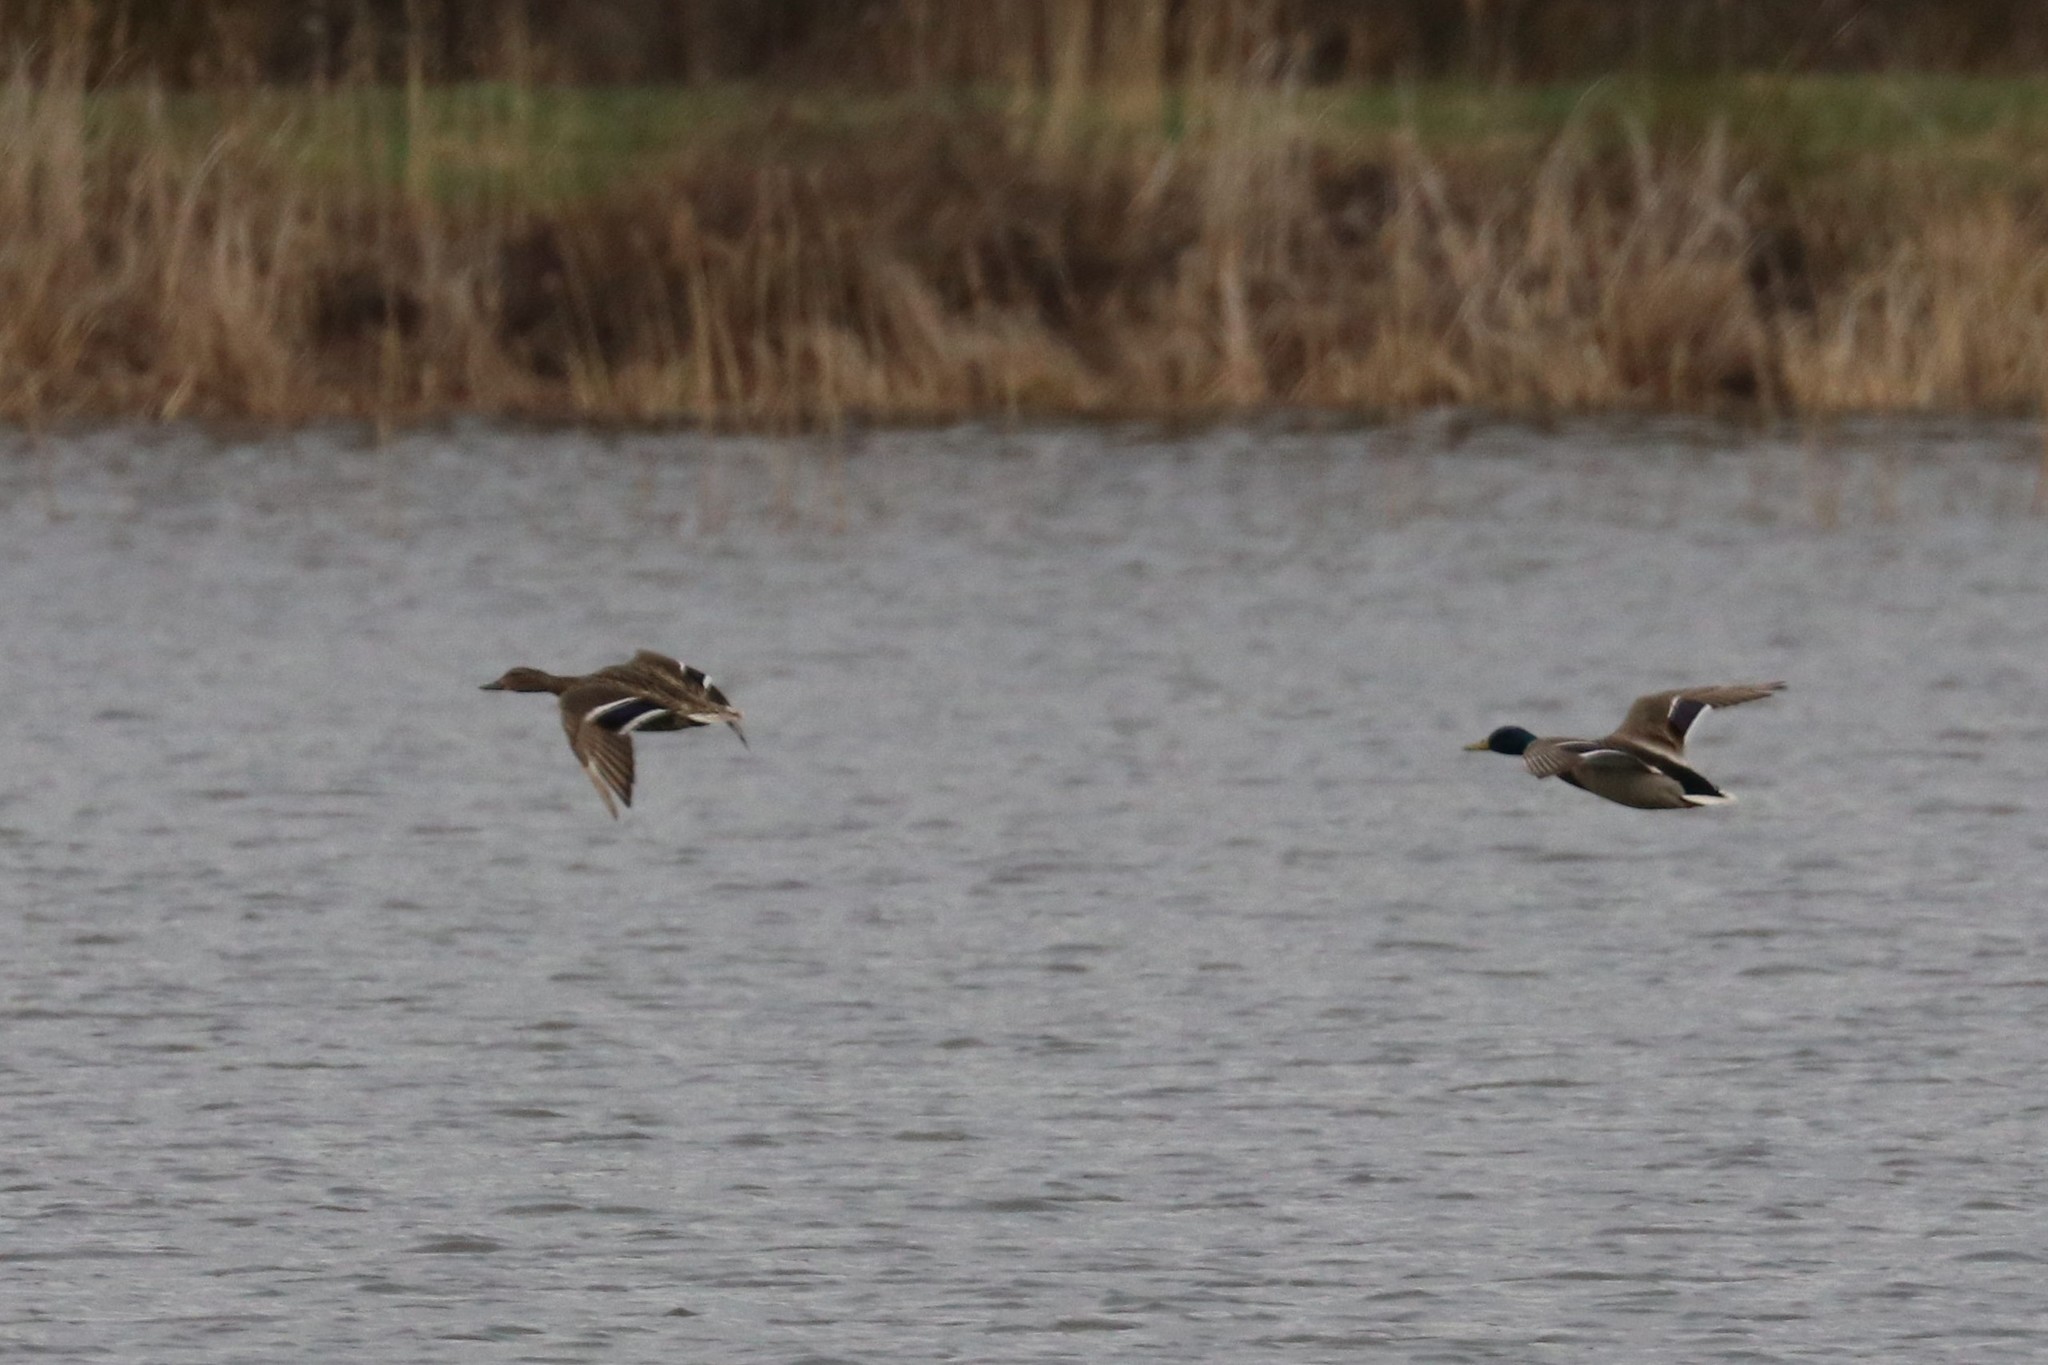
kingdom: Animalia
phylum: Chordata
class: Aves
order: Anseriformes
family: Anatidae
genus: Anas
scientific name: Anas platyrhynchos
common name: Mallard
